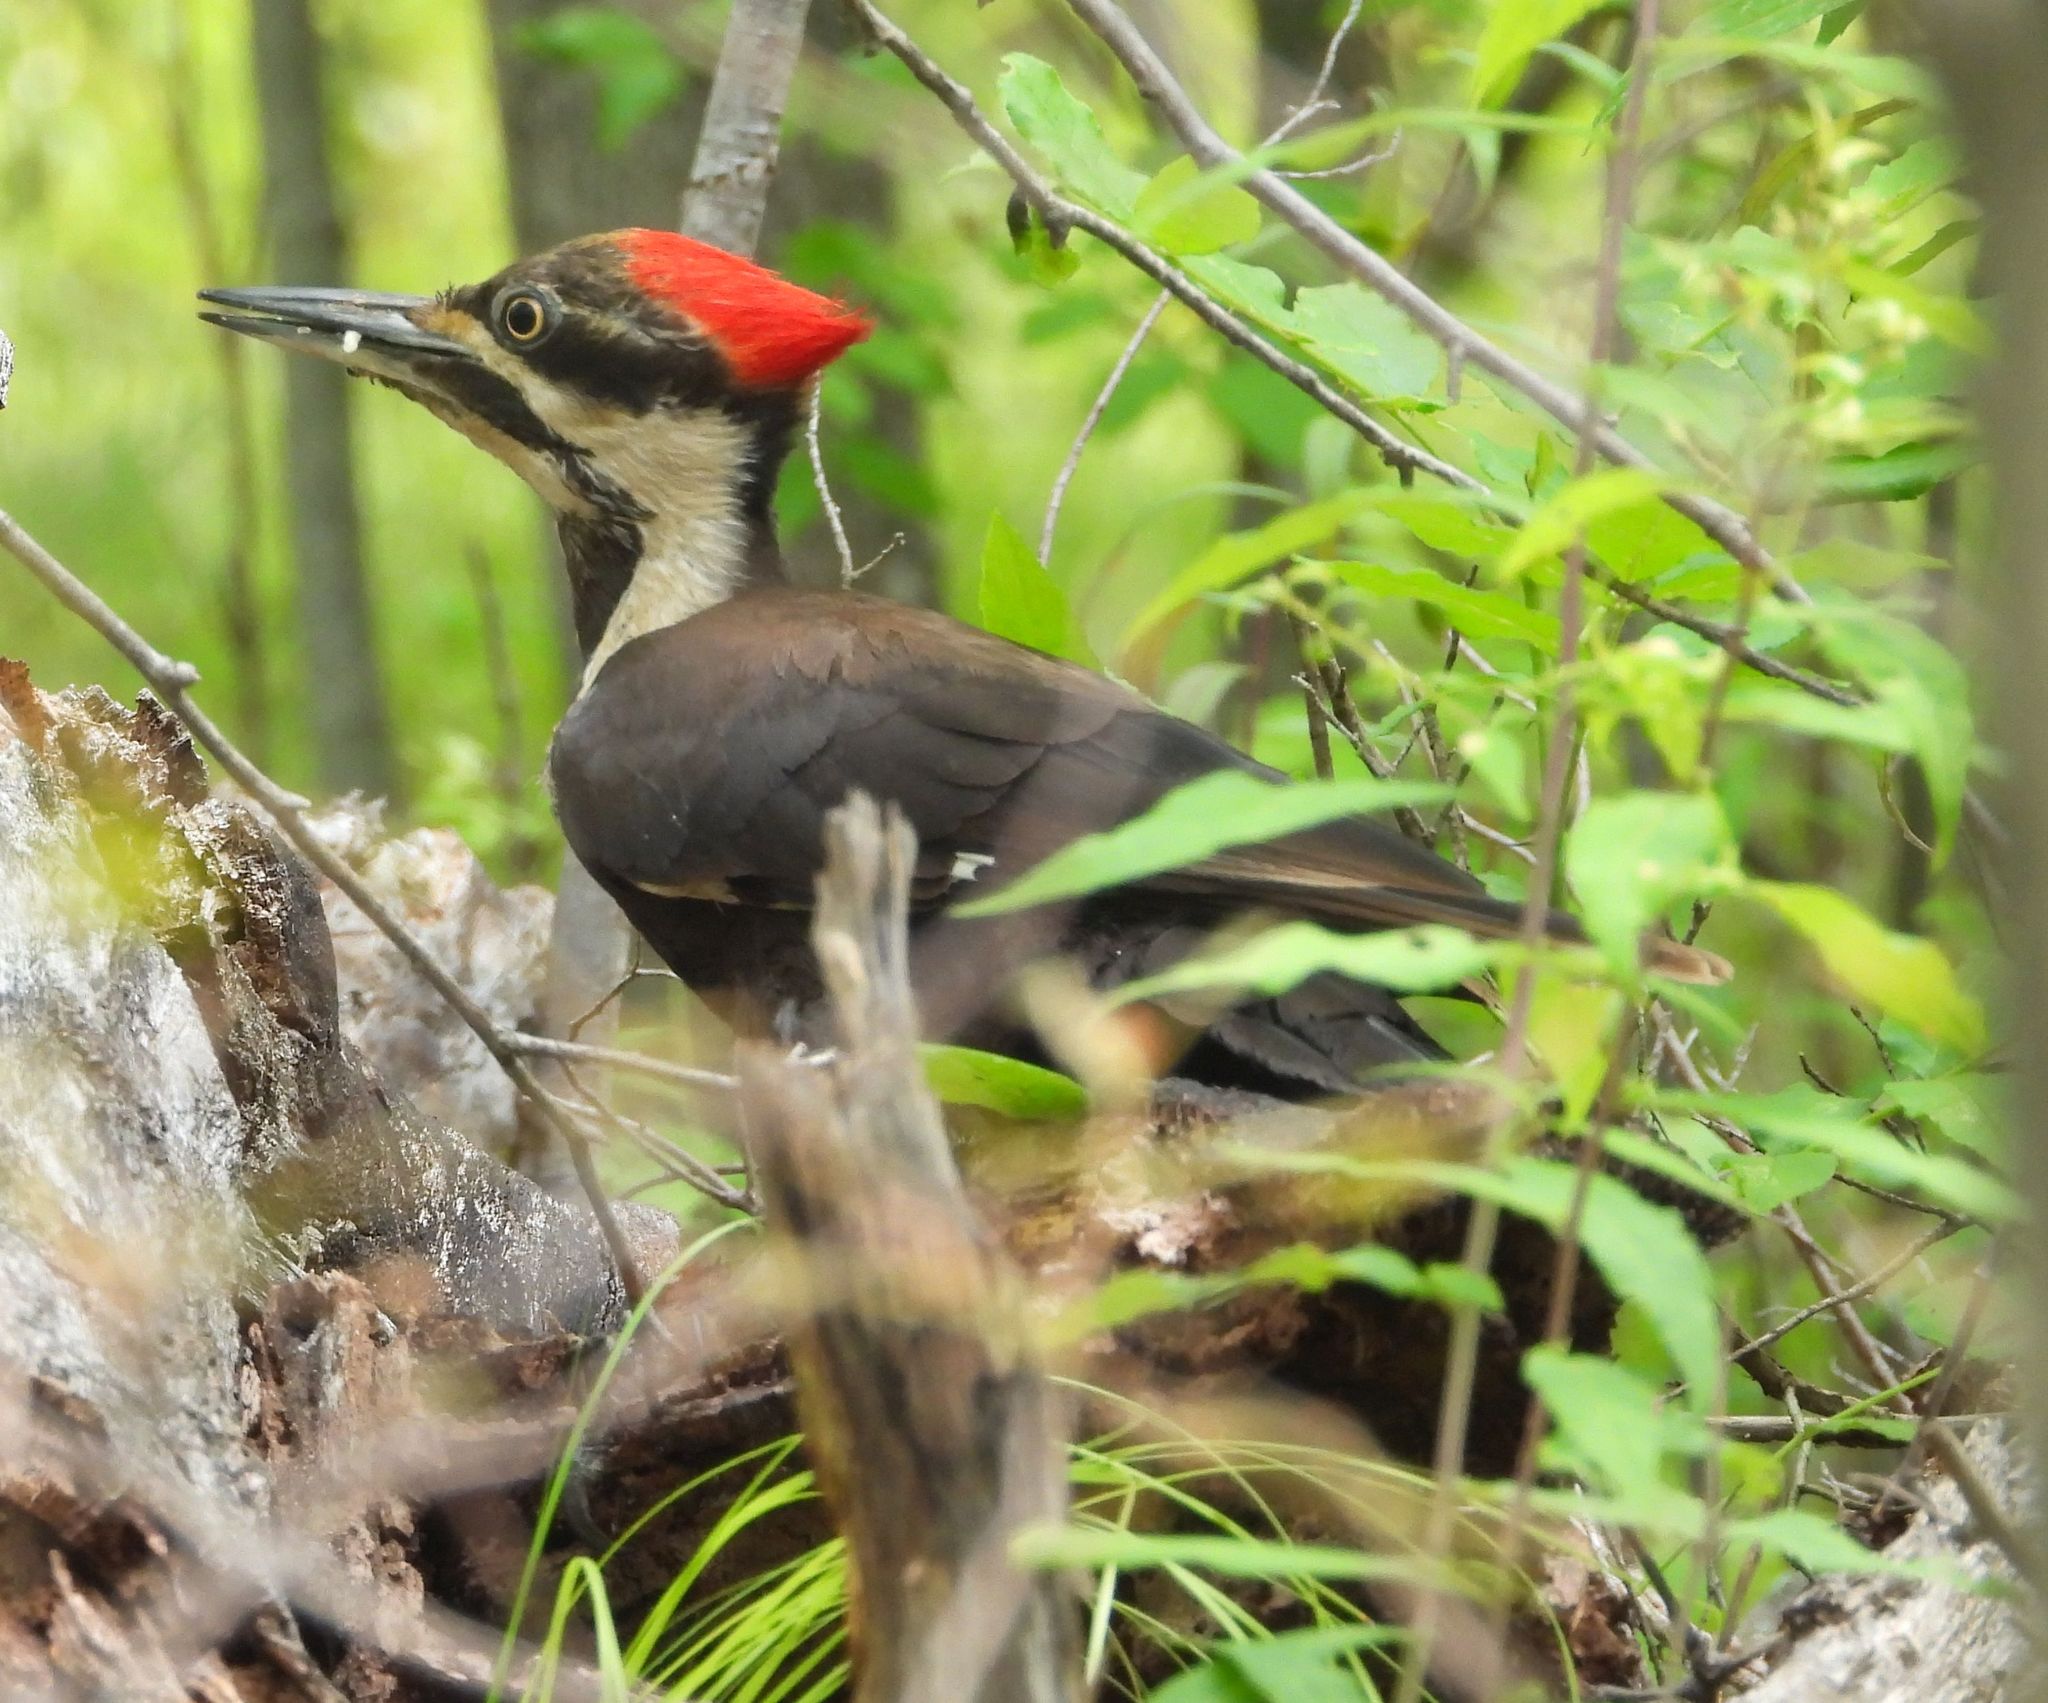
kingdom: Animalia
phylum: Chordata
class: Aves
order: Piciformes
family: Picidae
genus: Dryocopus
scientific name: Dryocopus pileatus
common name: Pileated woodpecker
